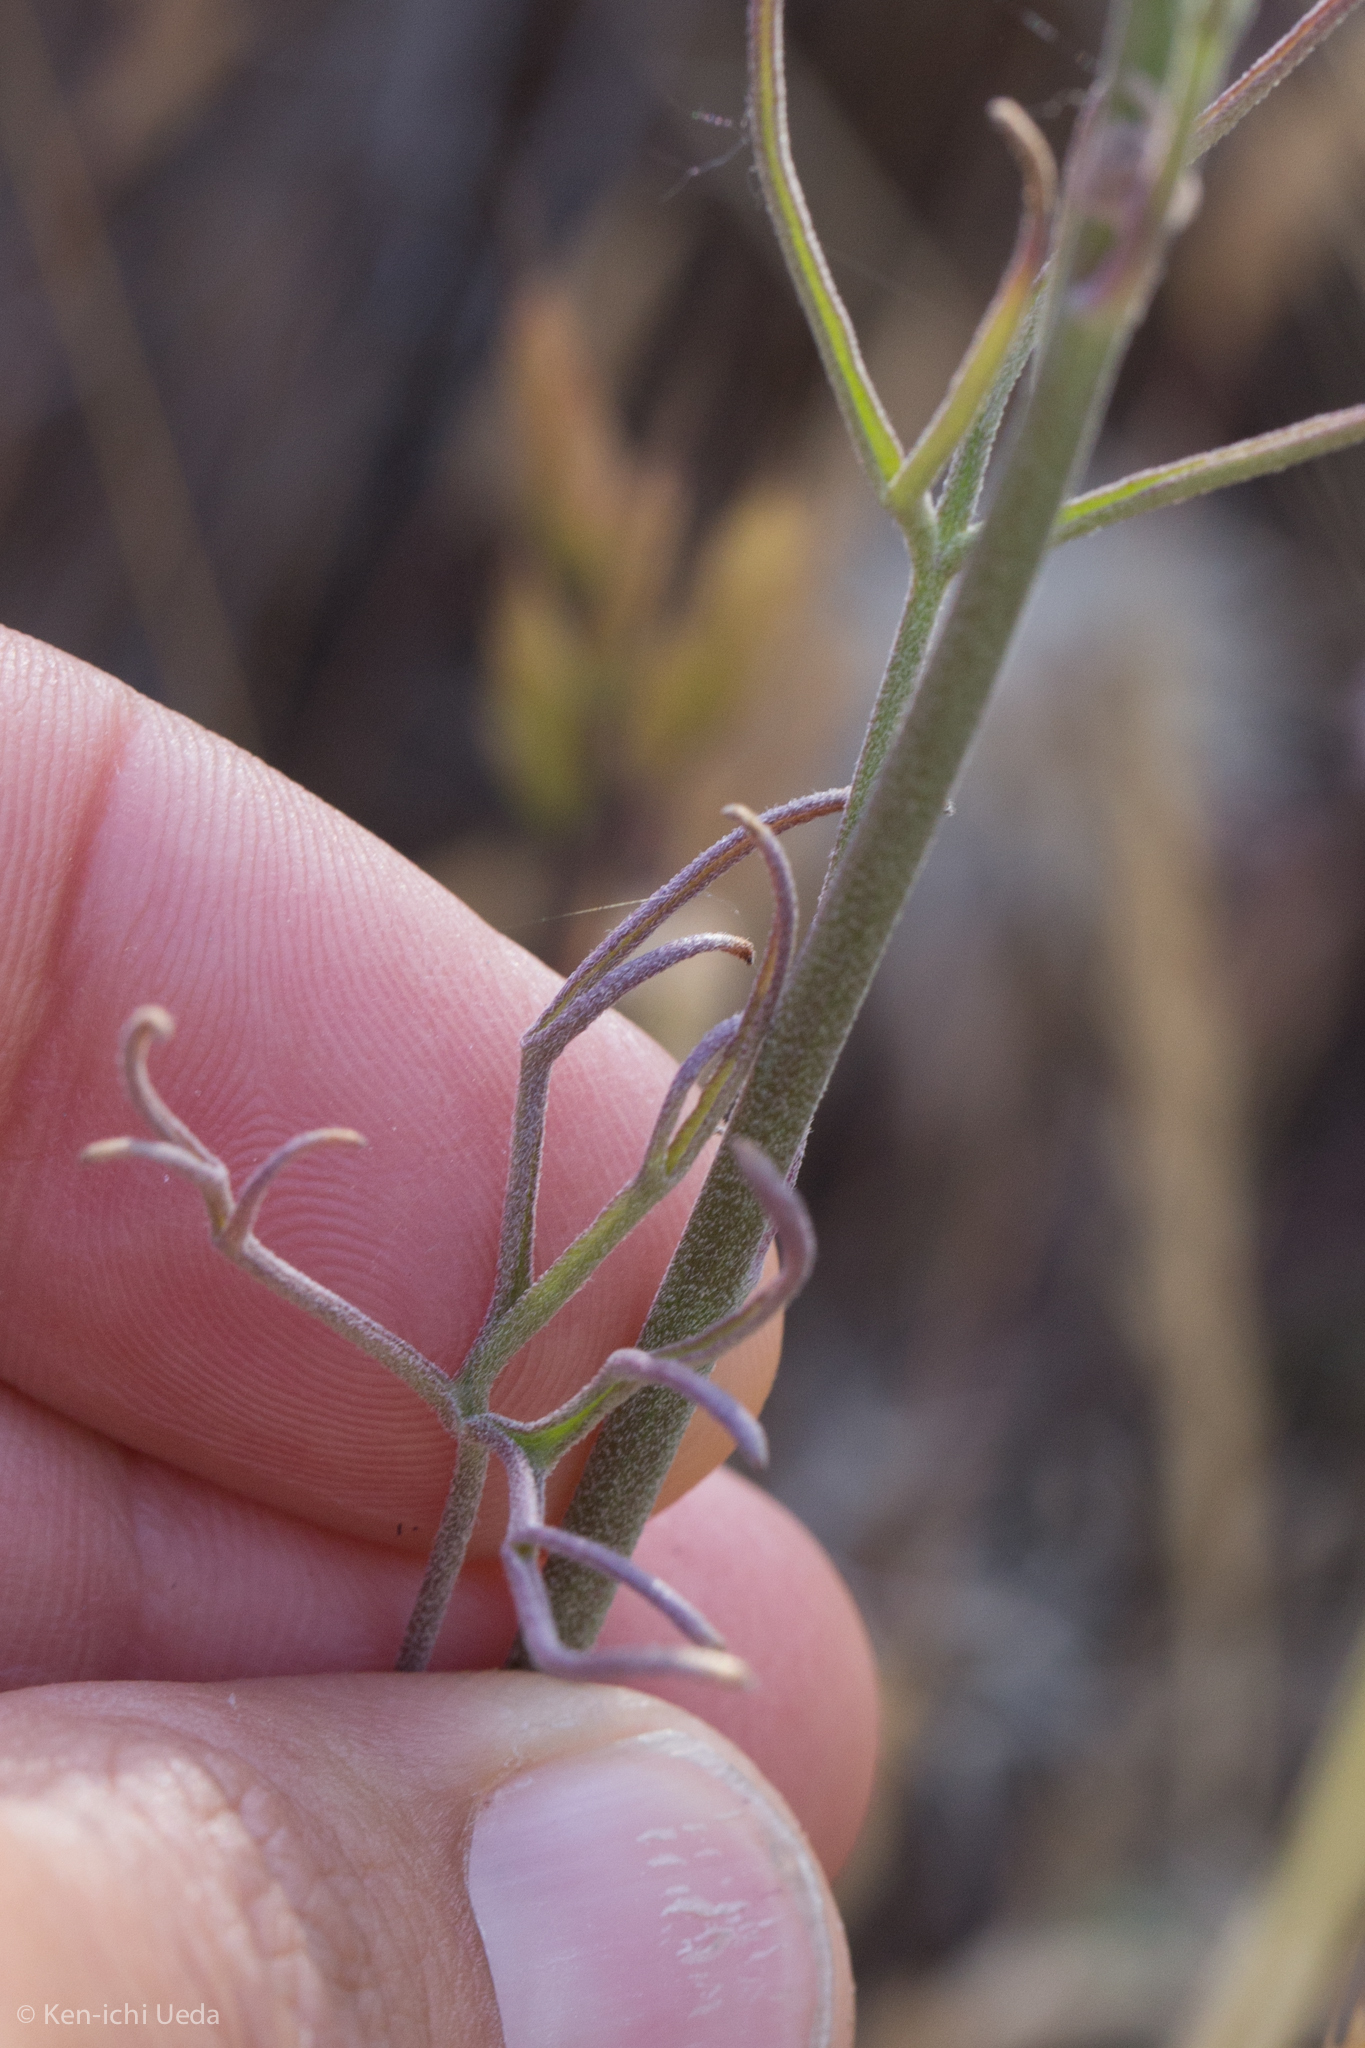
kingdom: Plantae
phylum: Tracheophyta
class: Magnoliopsida
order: Ranunculales
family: Ranunculaceae
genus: Delphinium
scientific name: Delphinium parryi
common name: Parry's larkspur
